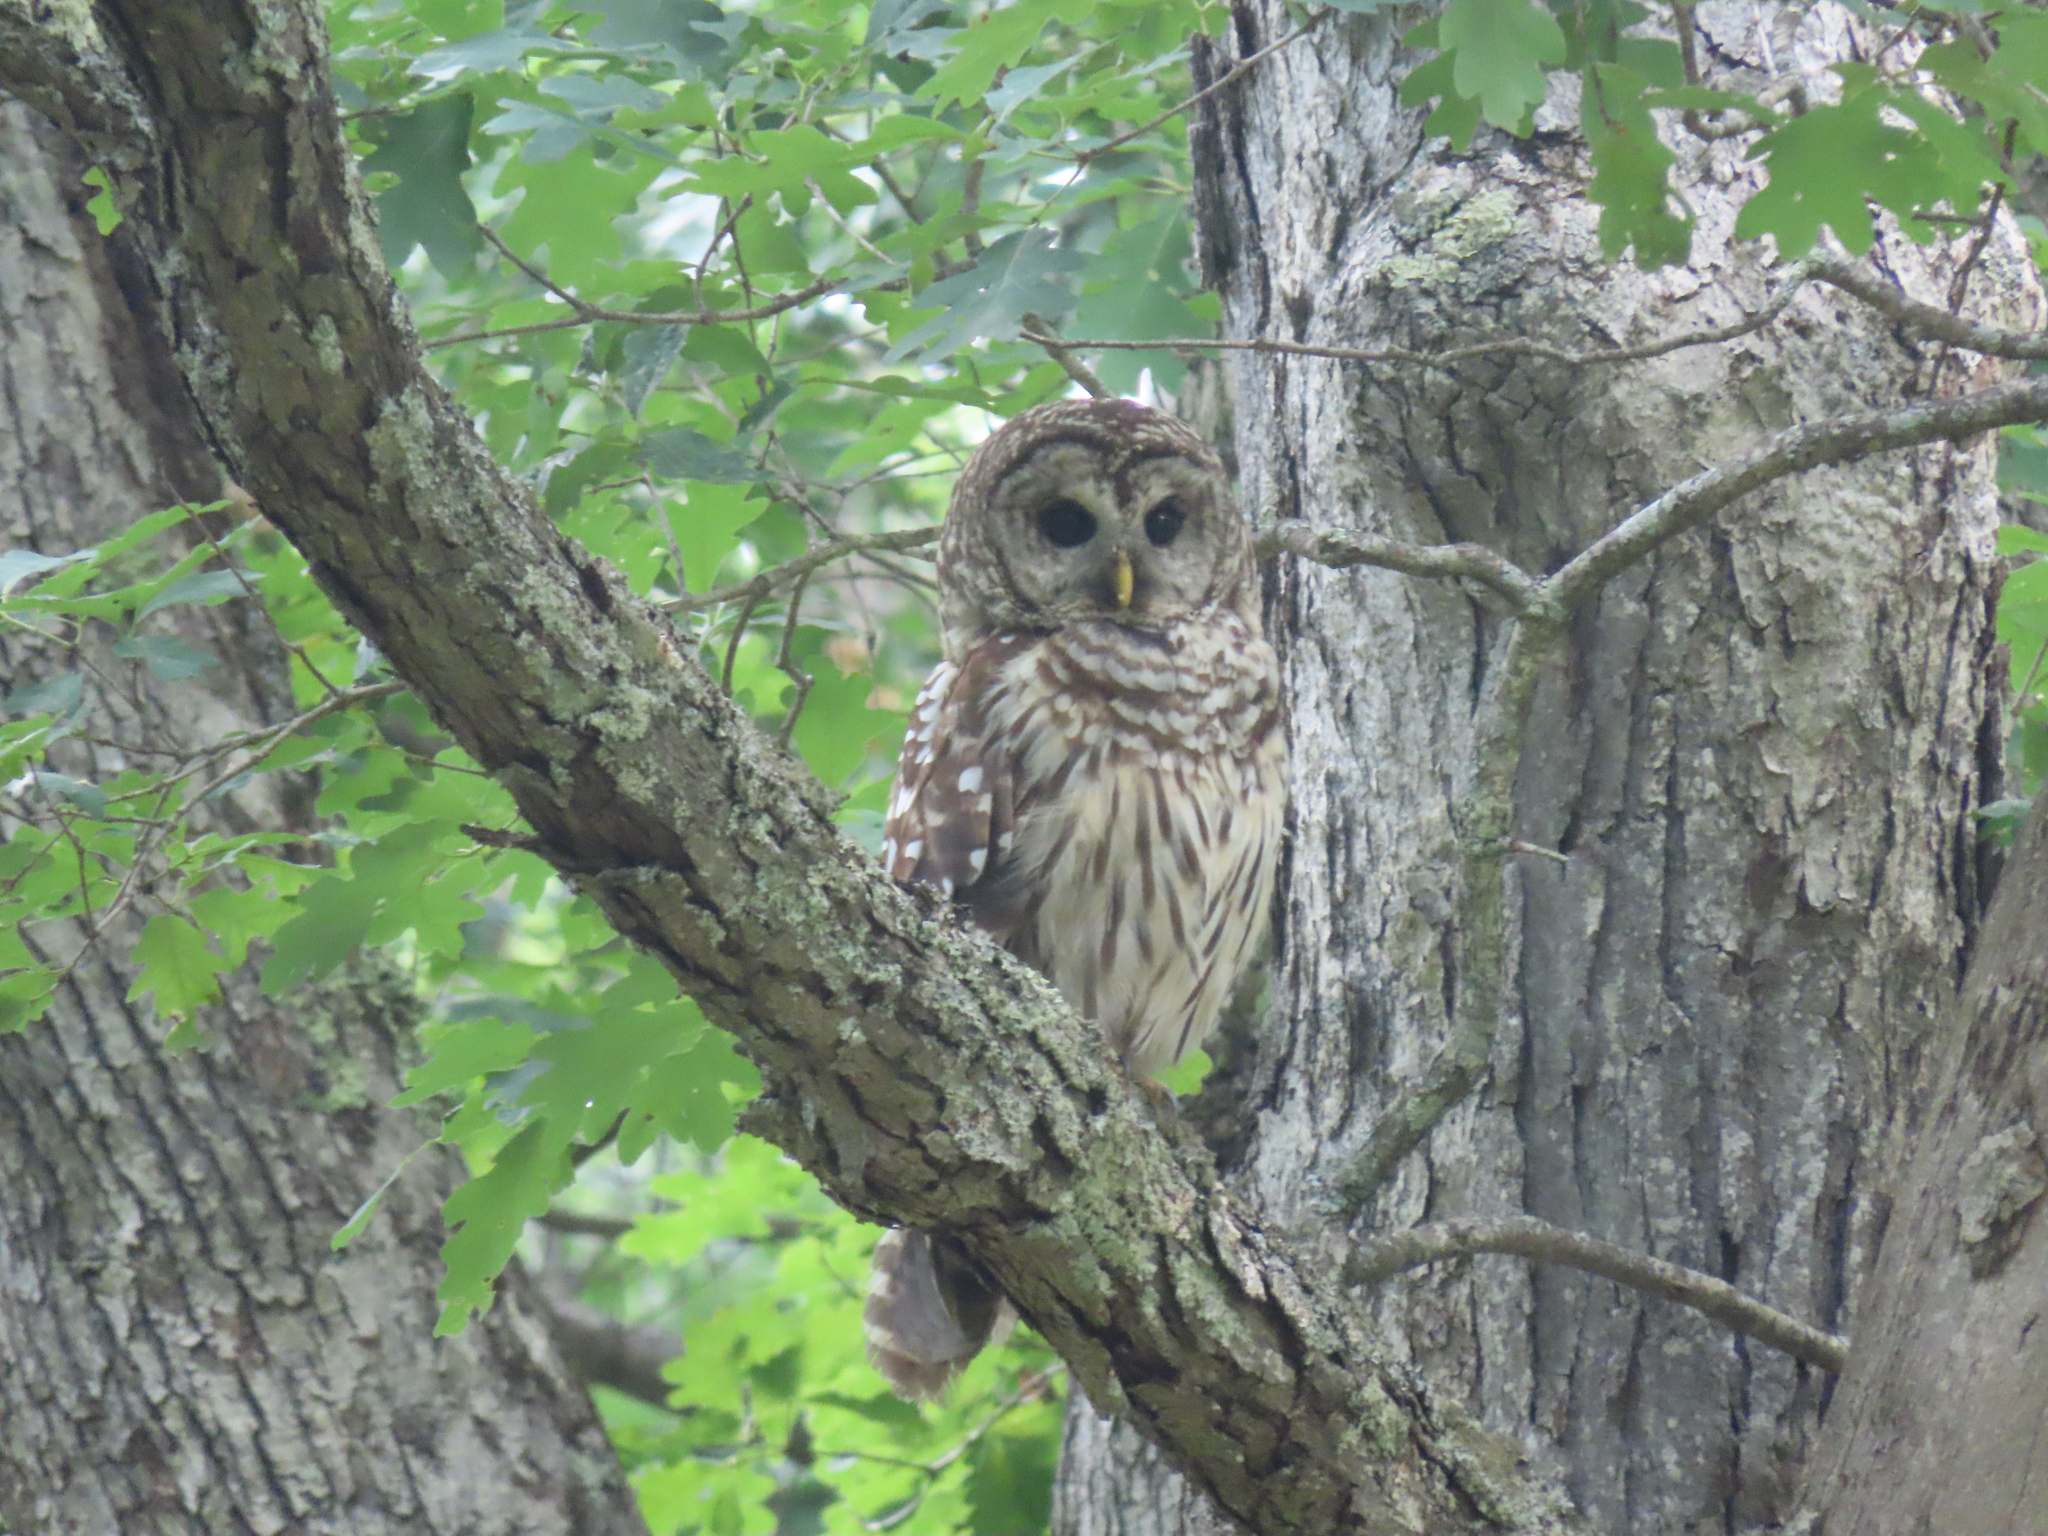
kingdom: Animalia
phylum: Chordata
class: Aves
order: Strigiformes
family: Strigidae
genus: Strix
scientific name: Strix varia
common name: Barred owl
